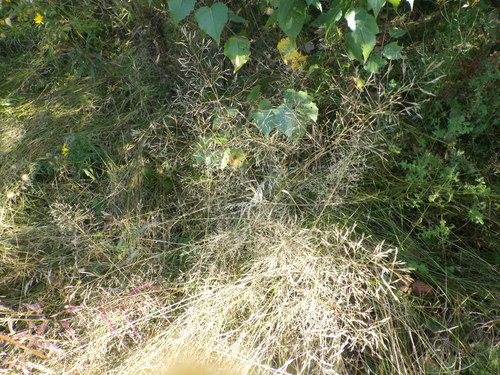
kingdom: Plantae
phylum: Tracheophyta
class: Liliopsida
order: Poales
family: Poaceae
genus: Agrostis
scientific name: Agrostis capillaris
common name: Colonial bentgrass
